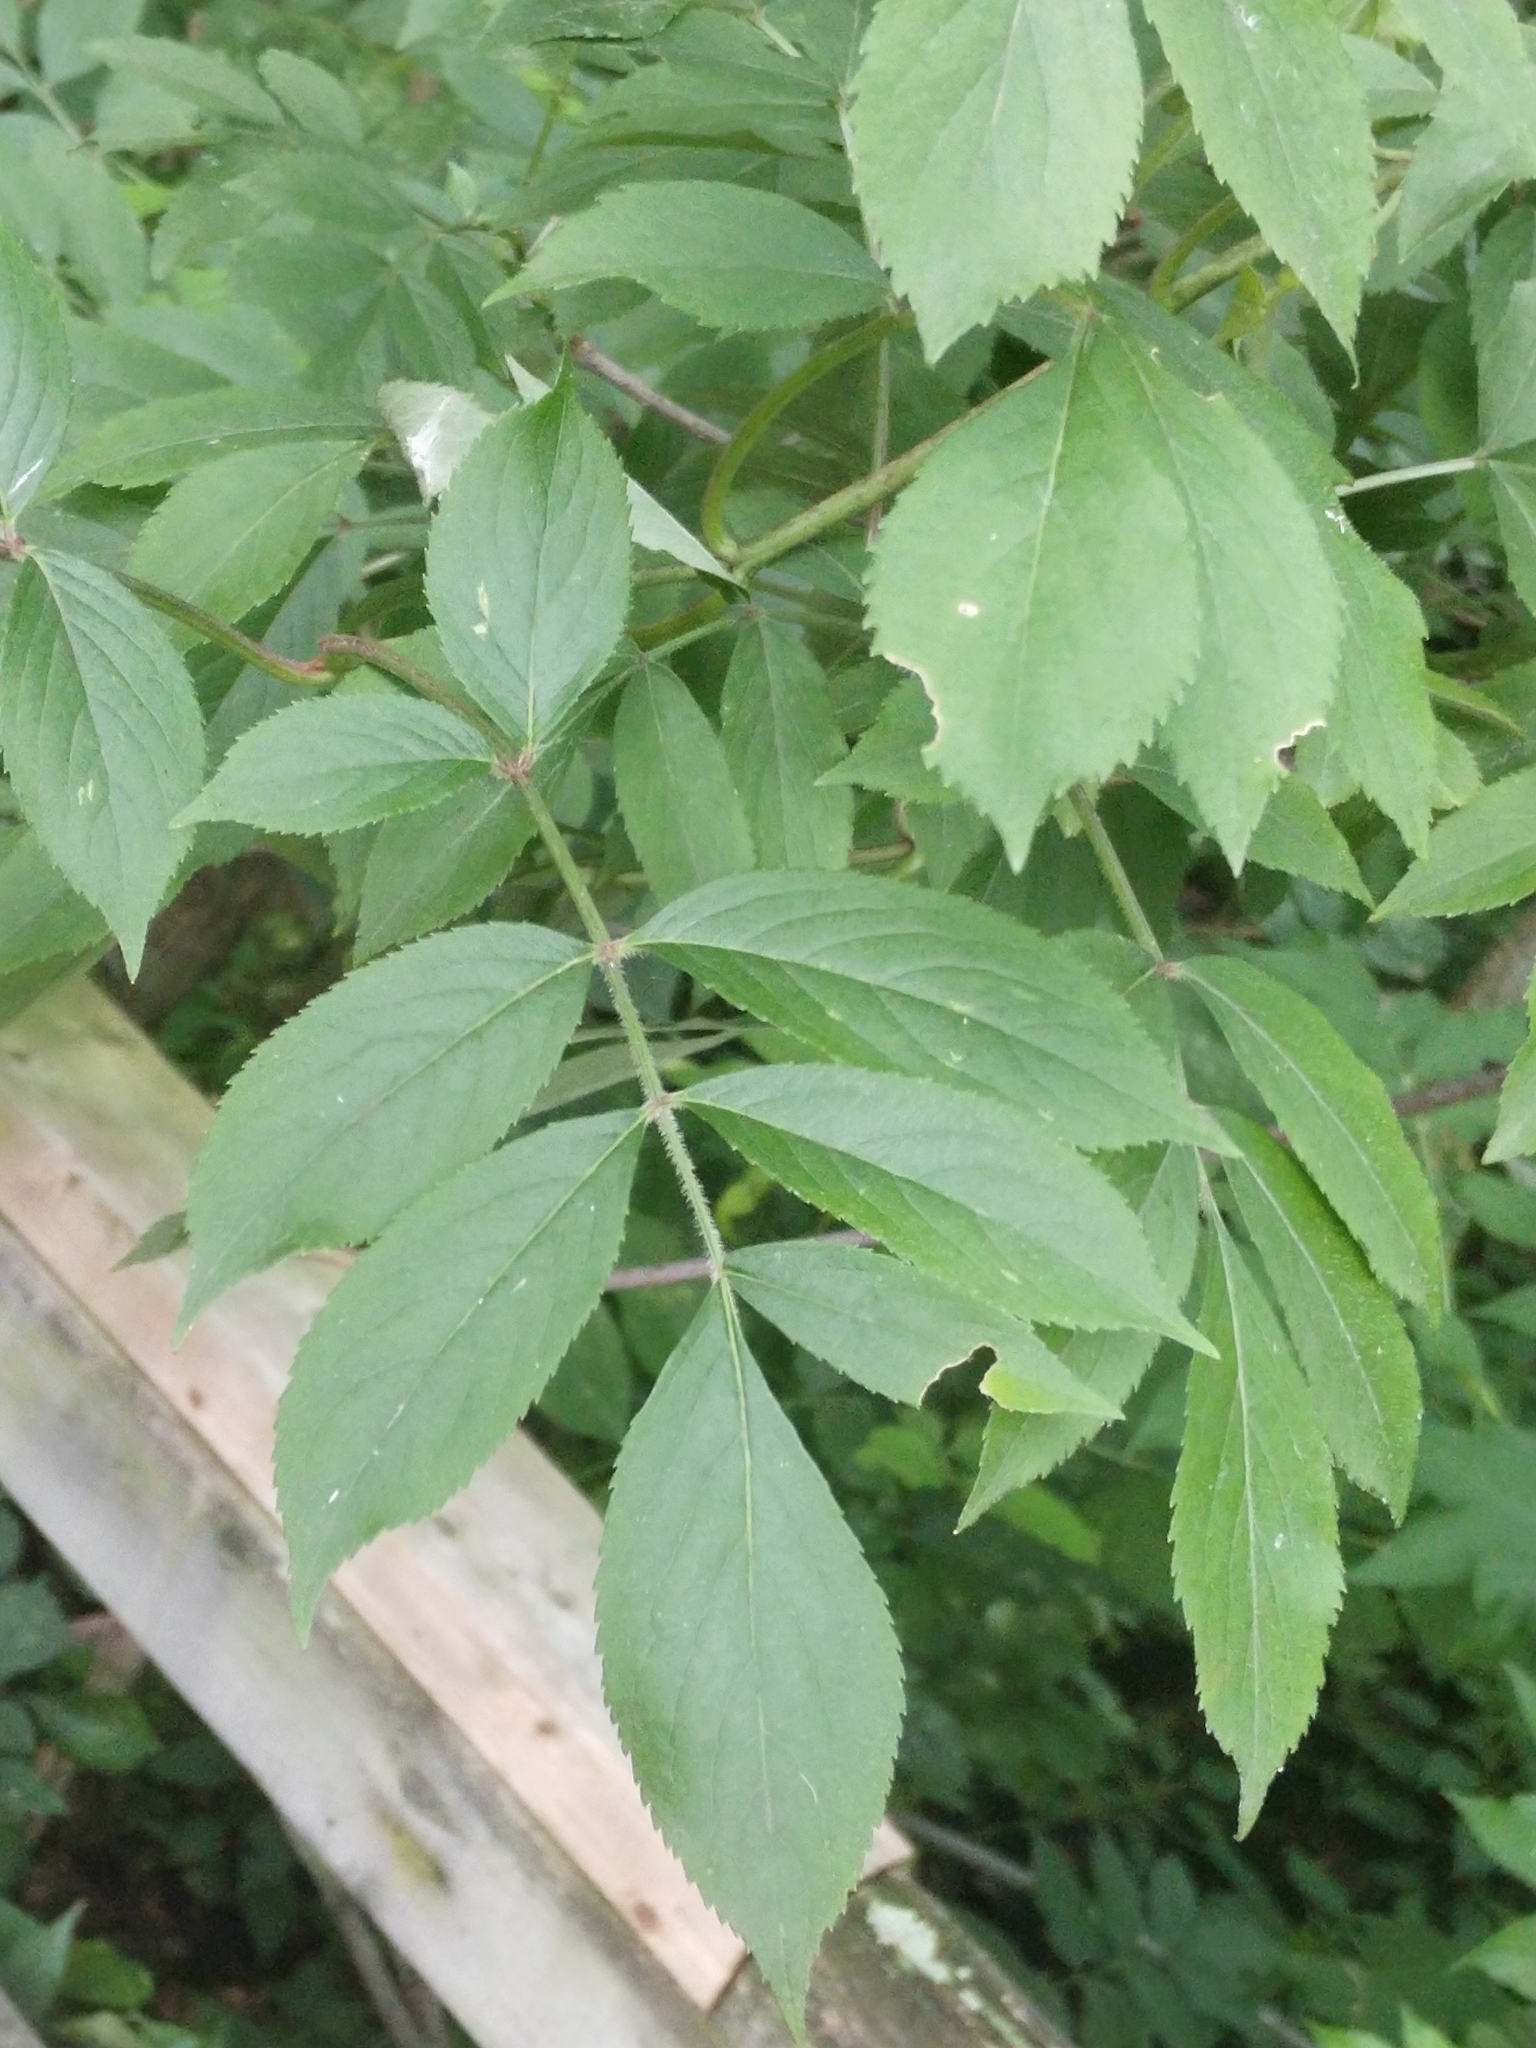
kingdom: Plantae
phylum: Tracheophyta
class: Magnoliopsida
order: Dipsacales
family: Viburnaceae
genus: Sambucus
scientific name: Sambucus canadensis
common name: American elder
